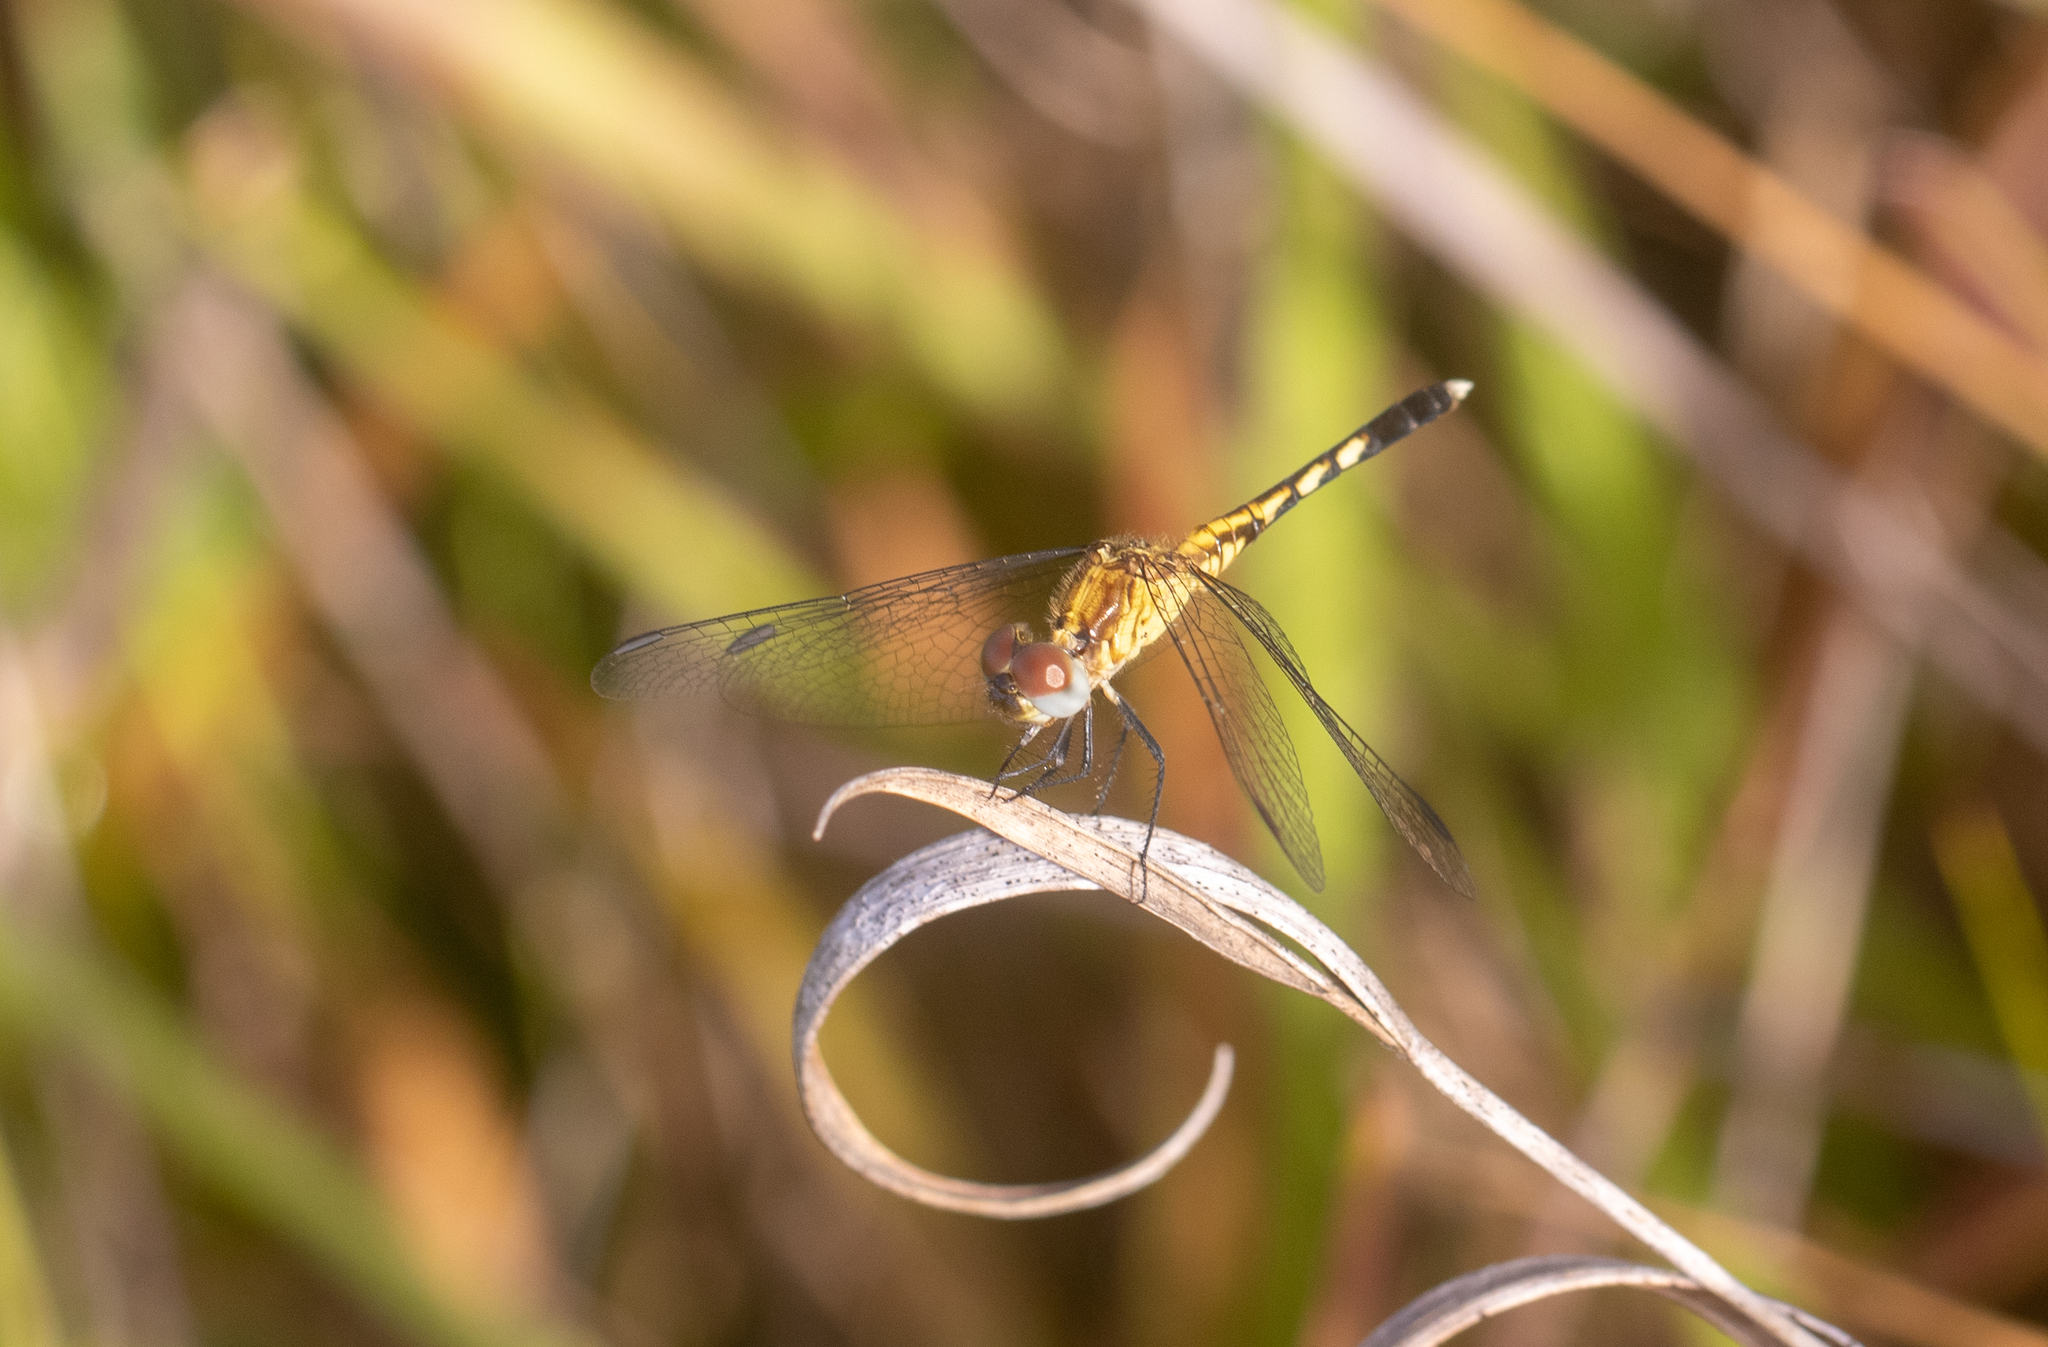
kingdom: Animalia
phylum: Arthropoda
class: Insecta
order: Odonata
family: Libellulidae
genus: Erythrodiplax
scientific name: Erythrodiplax minuscula
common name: Little blue dragonlet
